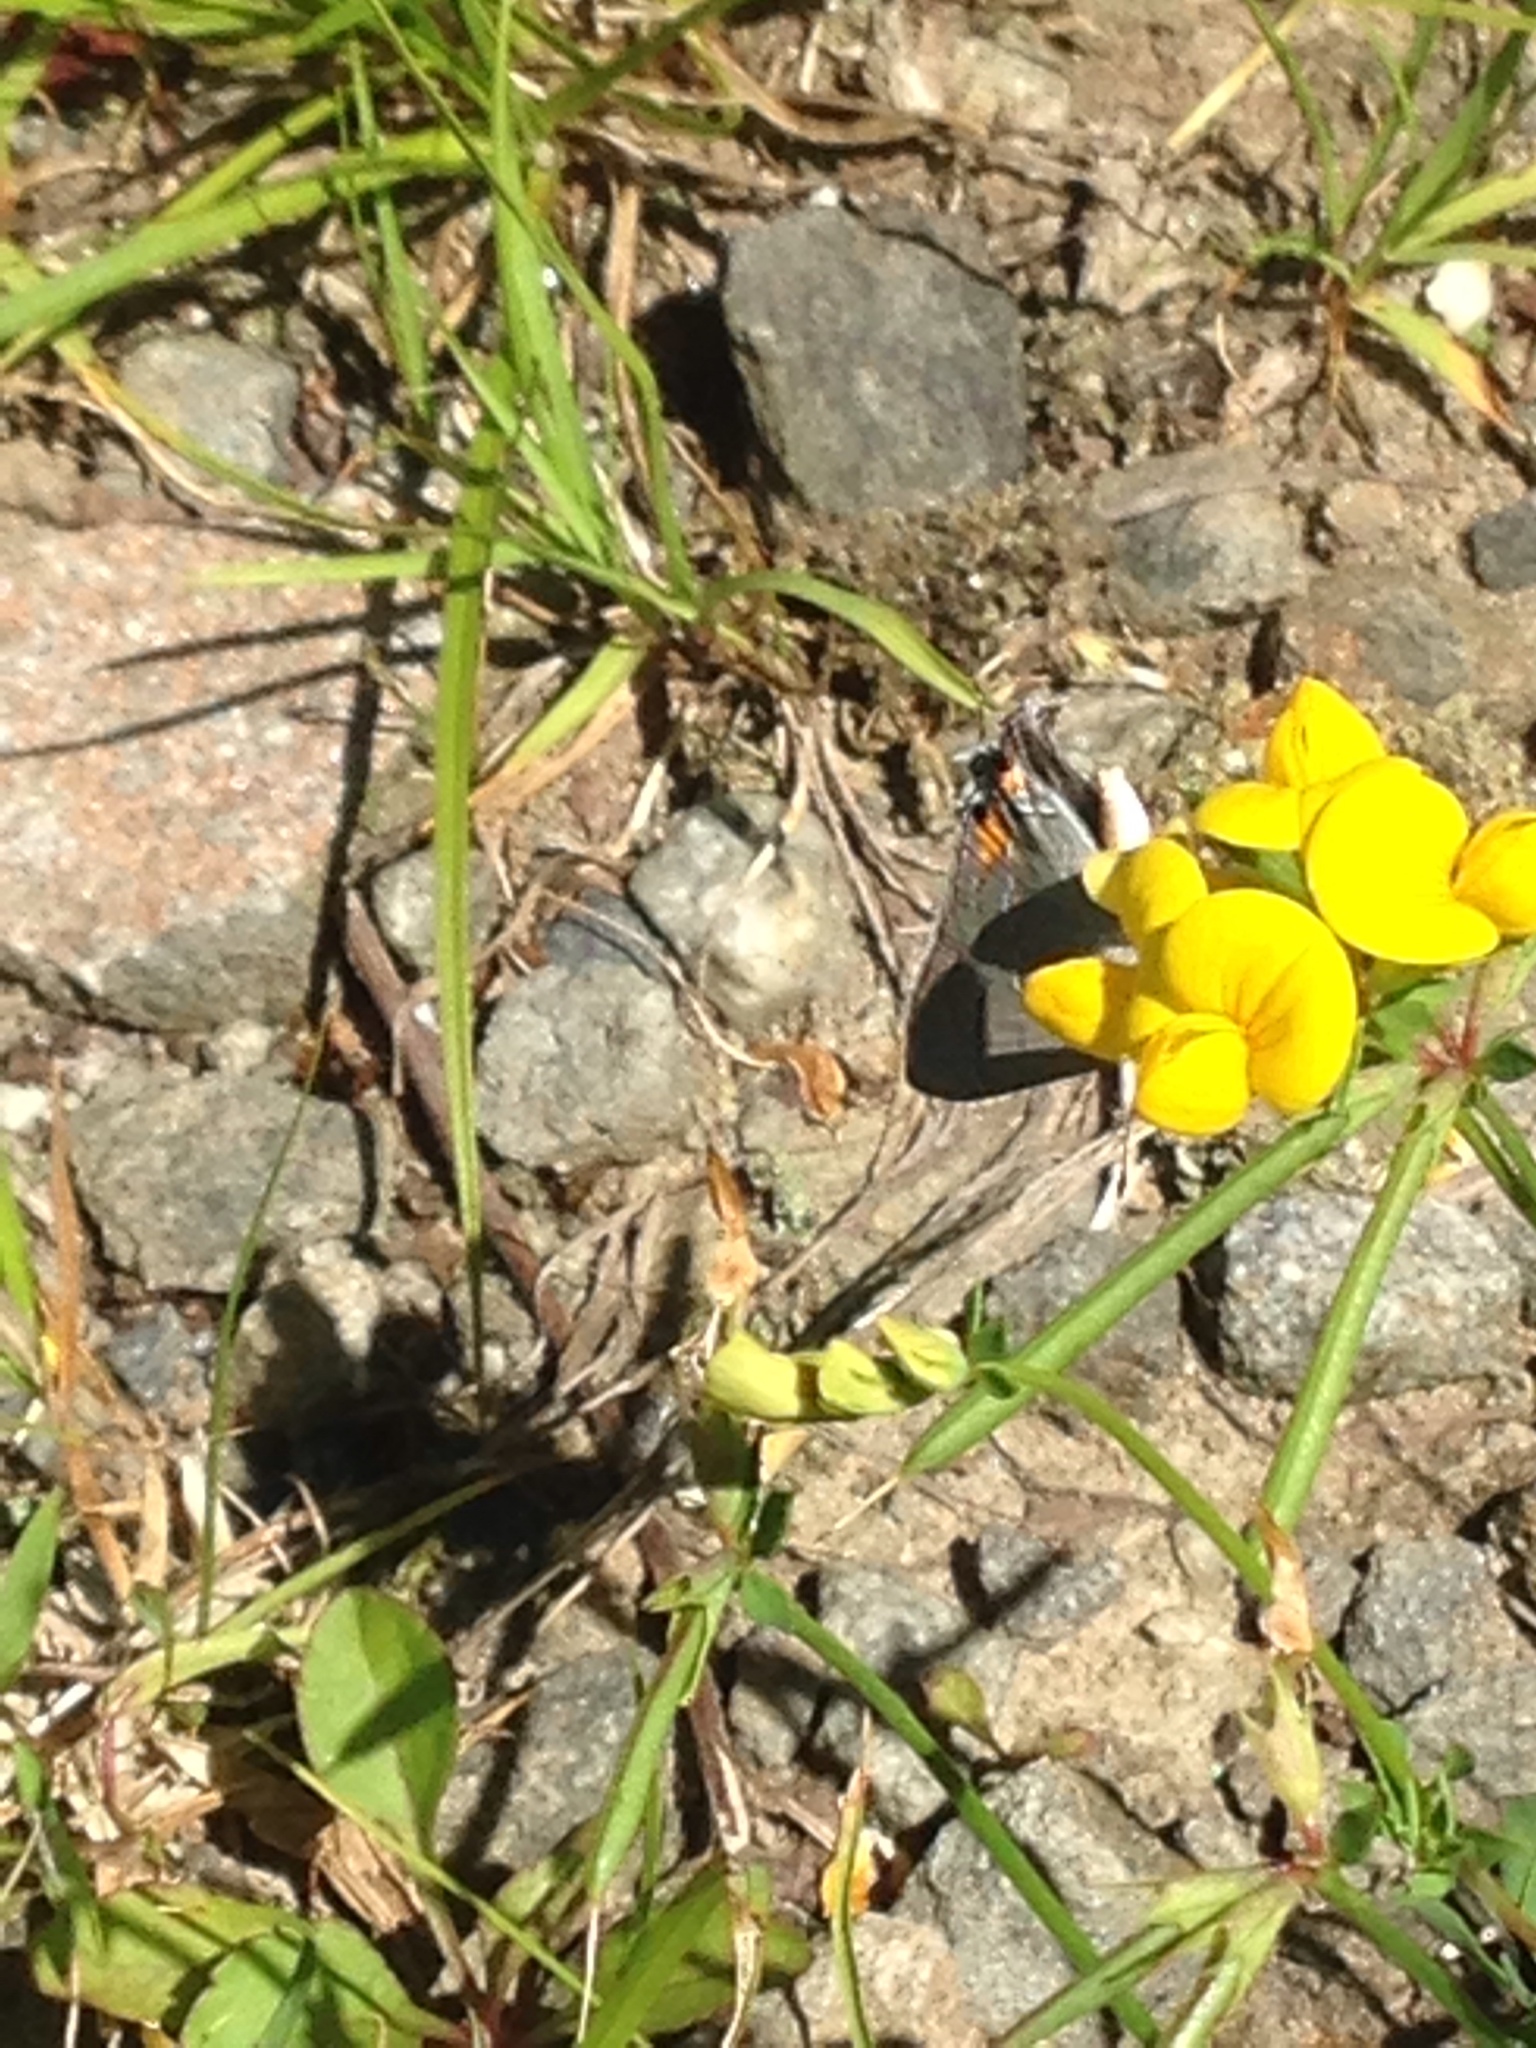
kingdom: Animalia
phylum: Arthropoda
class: Insecta
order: Lepidoptera
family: Lycaenidae
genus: Strymon
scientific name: Strymon melinus
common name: Gray hairstreak
